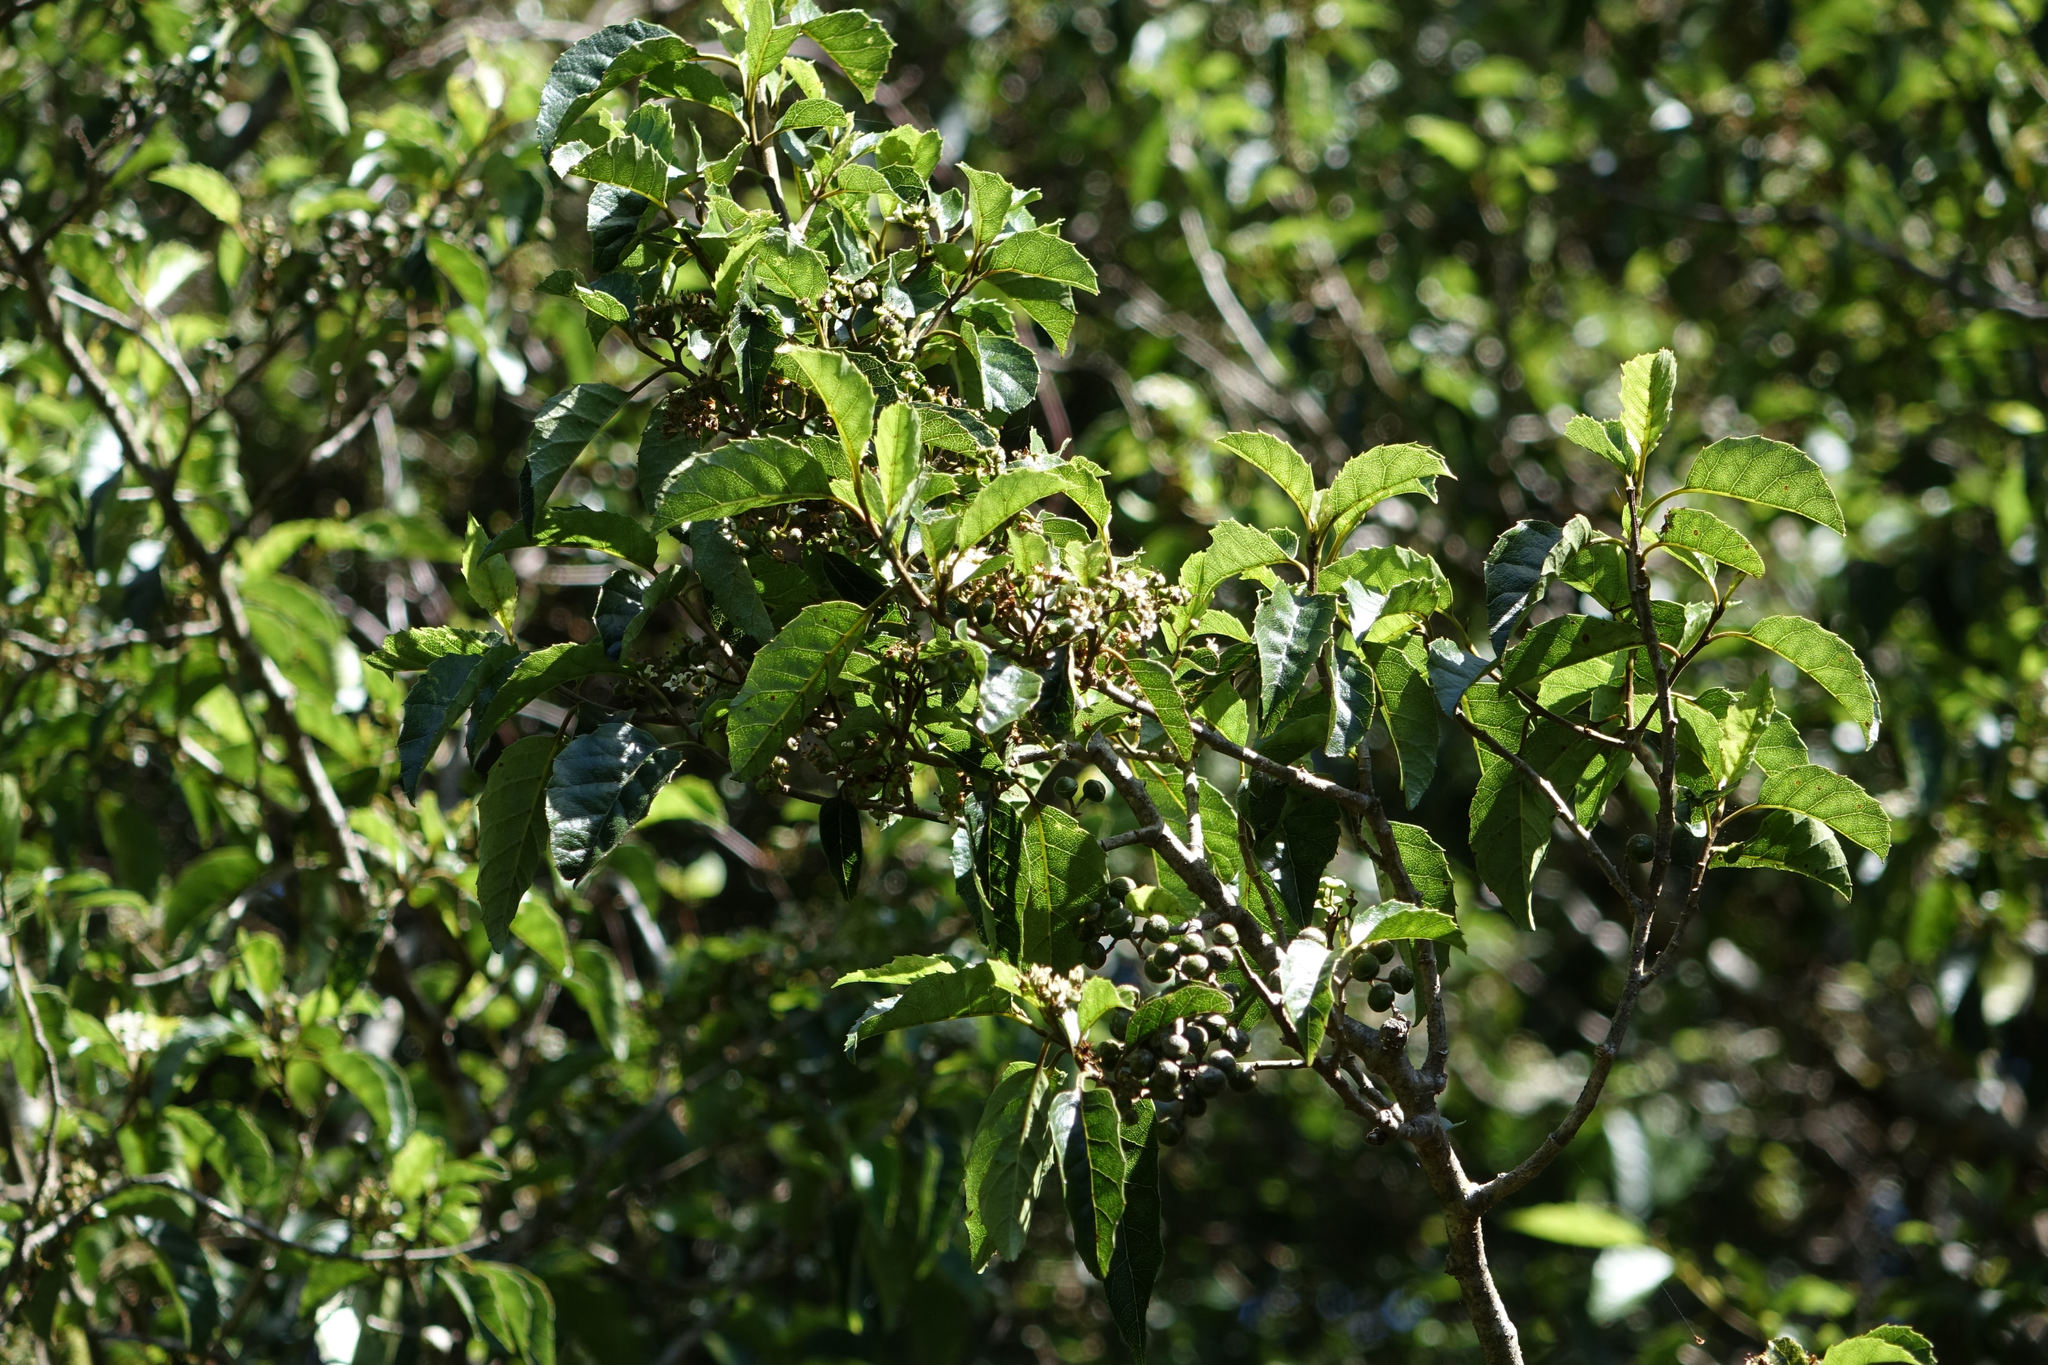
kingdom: Plantae
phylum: Tracheophyta
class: Magnoliopsida
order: Asterales
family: Rousseaceae
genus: Carpodetus
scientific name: Carpodetus serratus
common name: White mapau
